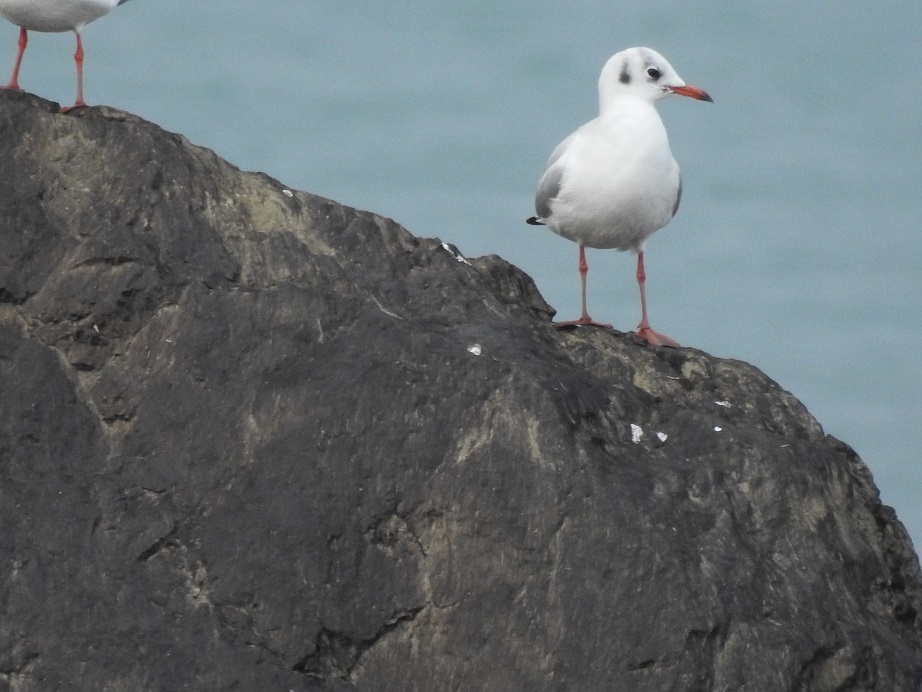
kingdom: Animalia
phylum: Chordata
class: Aves
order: Charadriiformes
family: Laridae
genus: Chroicocephalus
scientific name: Chroicocephalus ridibundus
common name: Black-headed gull
